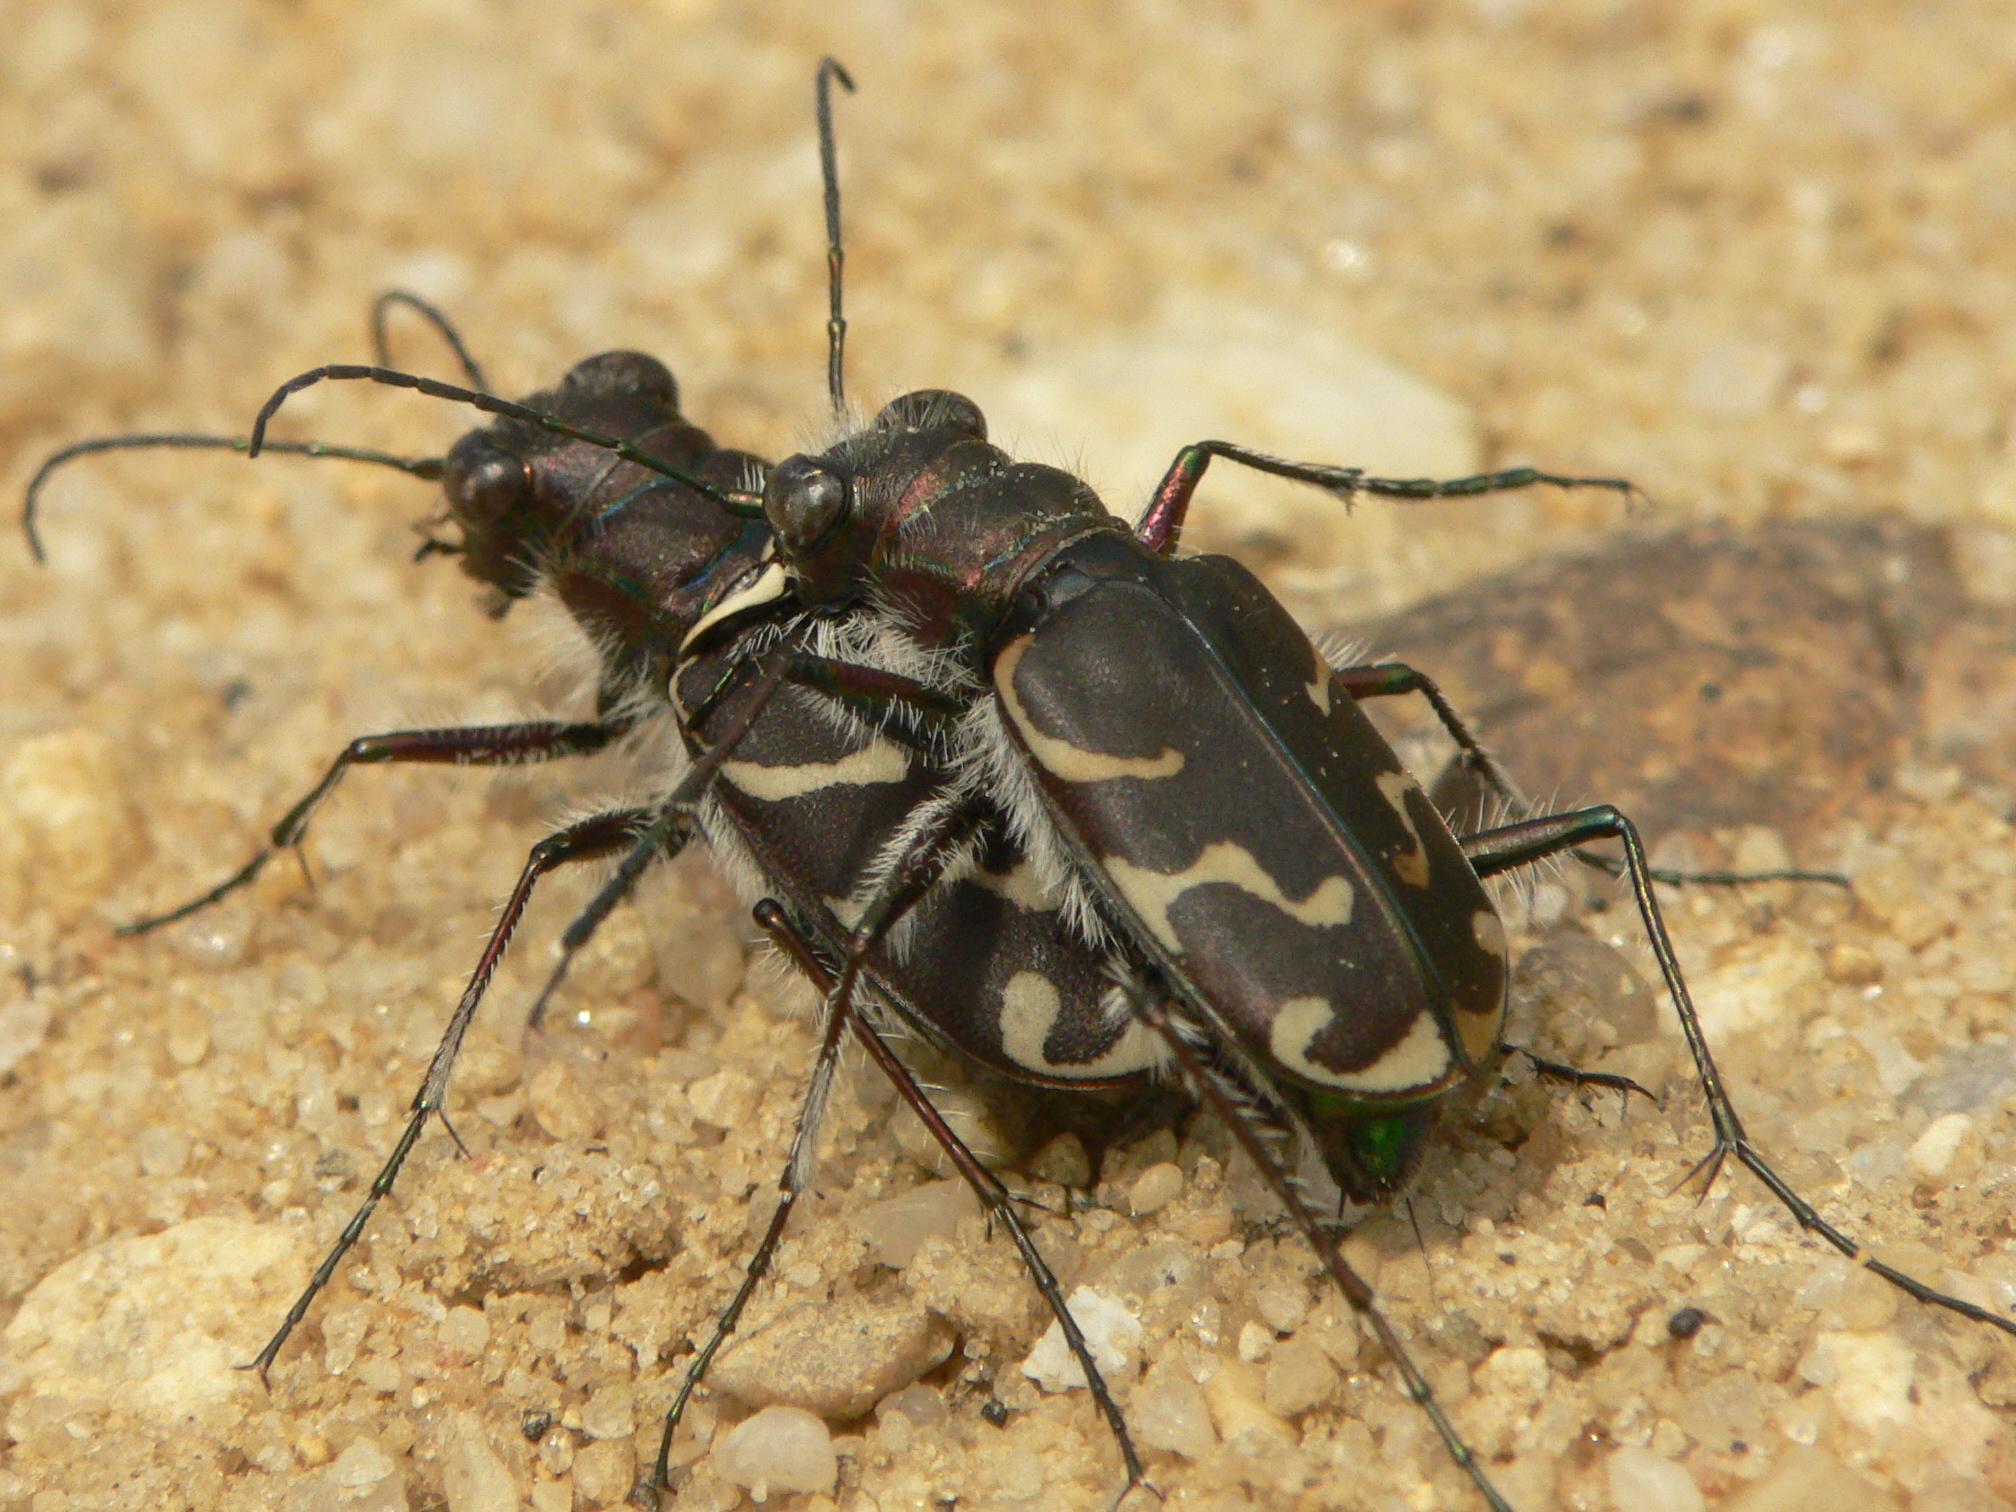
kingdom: Animalia
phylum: Arthropoda
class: Insecta
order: Coleoptera
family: Carabidae
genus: Cicindela
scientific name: Cicindela tranquebarica
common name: Oblique-lined tiger beetle
